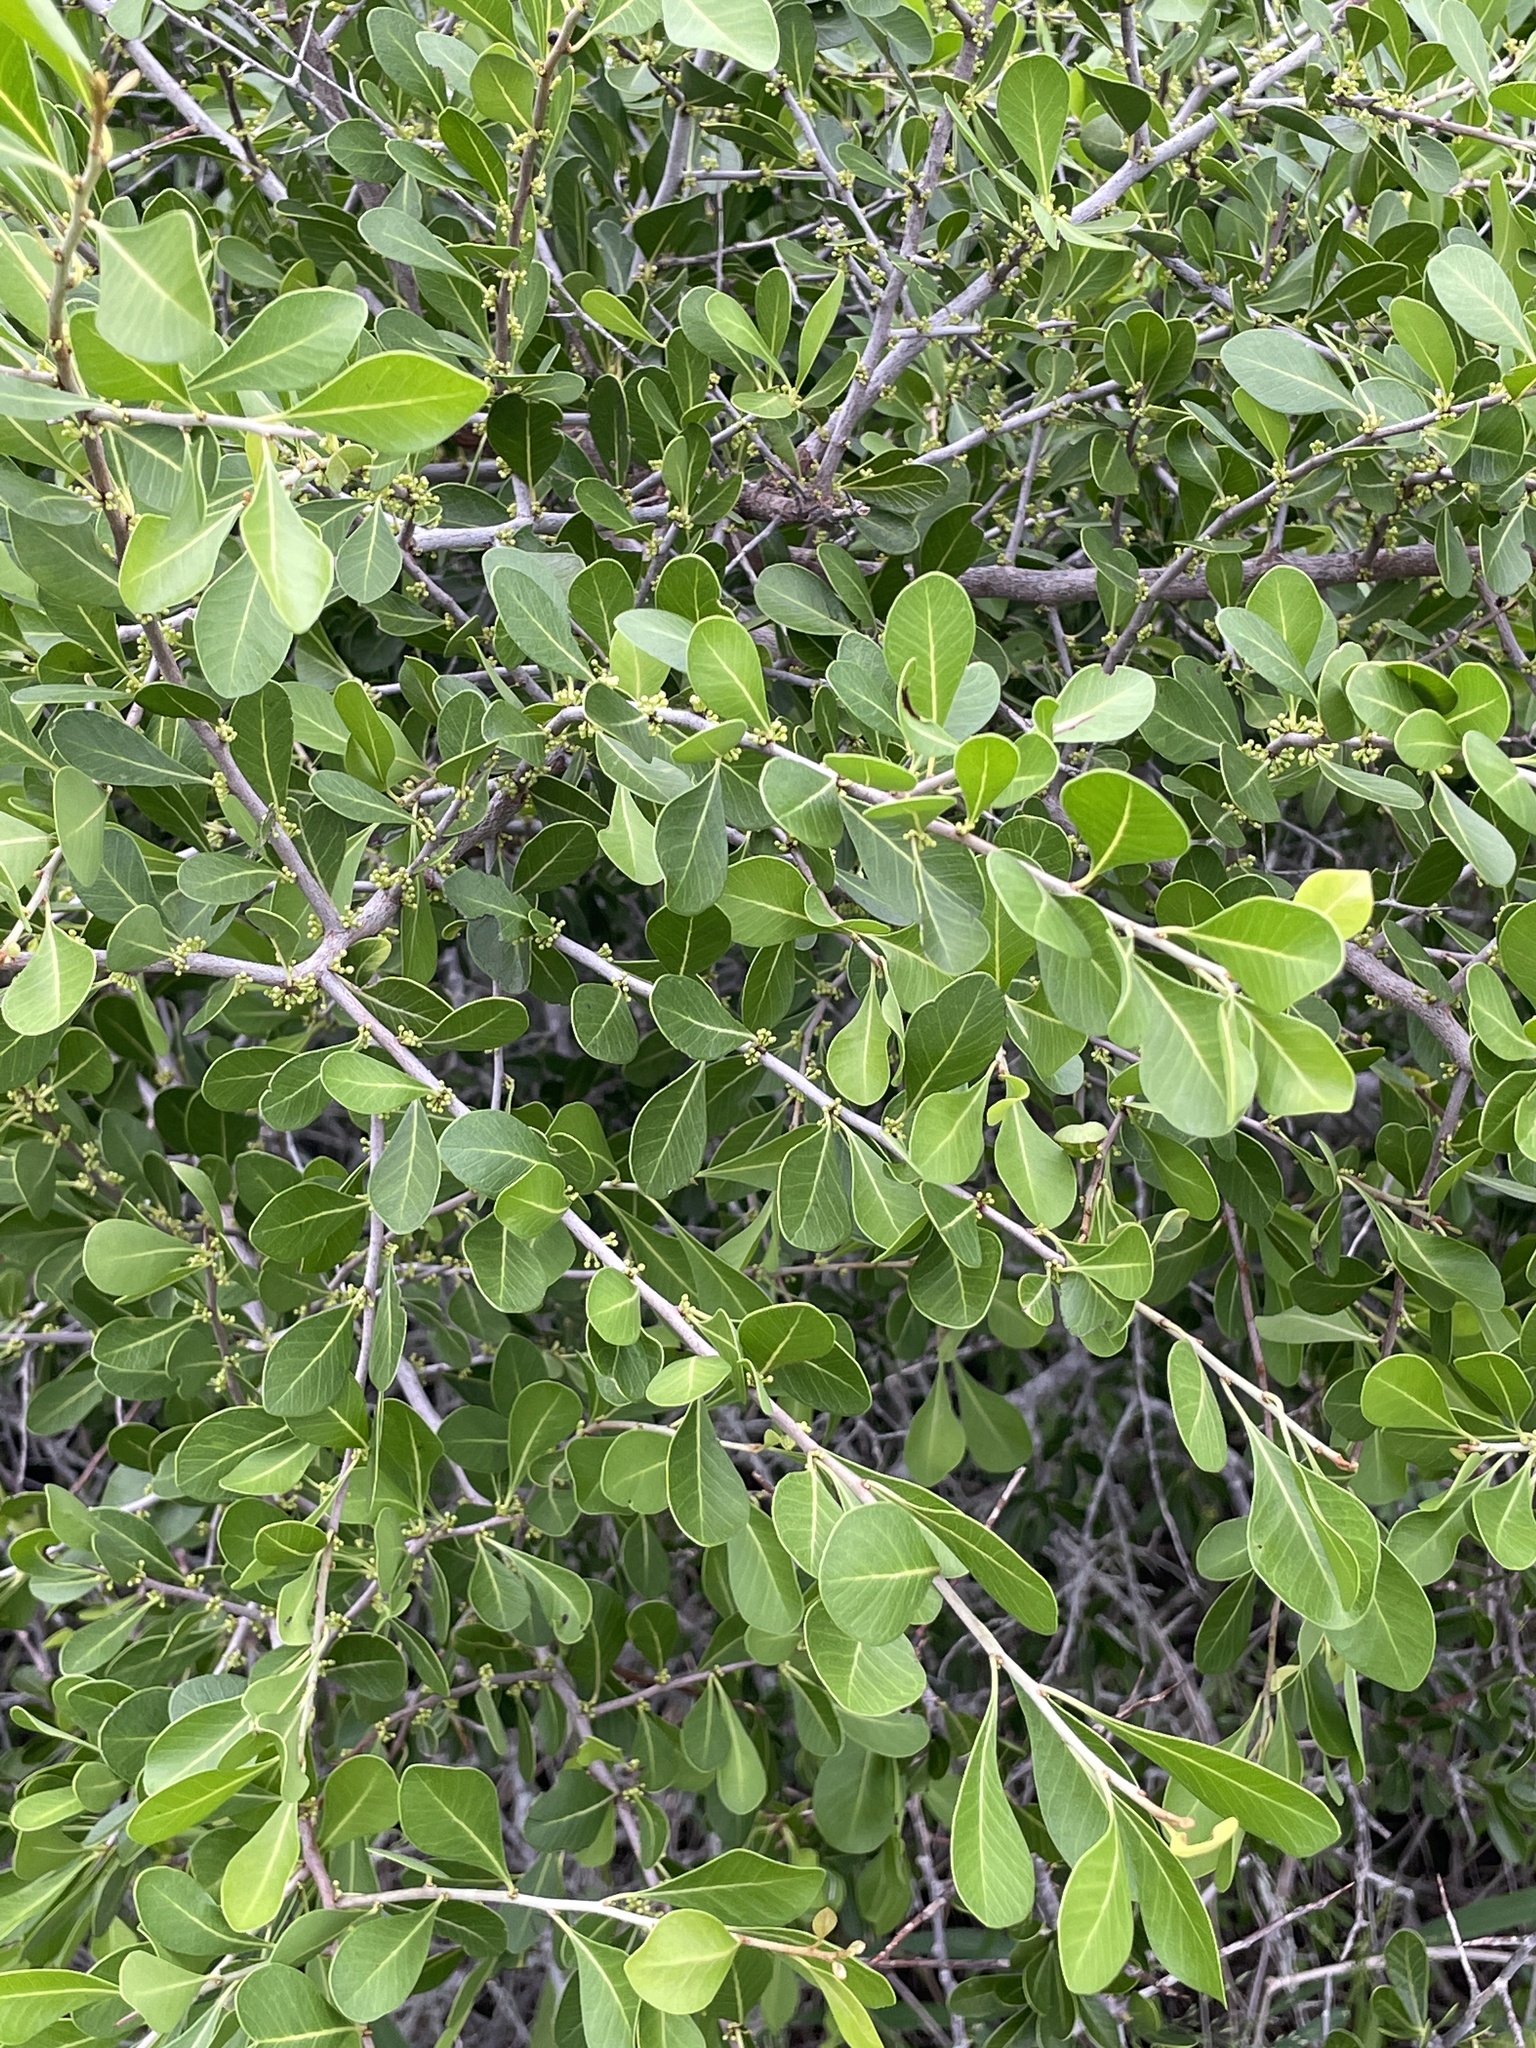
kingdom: Plantae
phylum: Tracheophyta
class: Magnoliopsida
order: Ericales
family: Sapotaceae
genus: Sideroxylon
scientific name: Sideroxylon celastrinum
